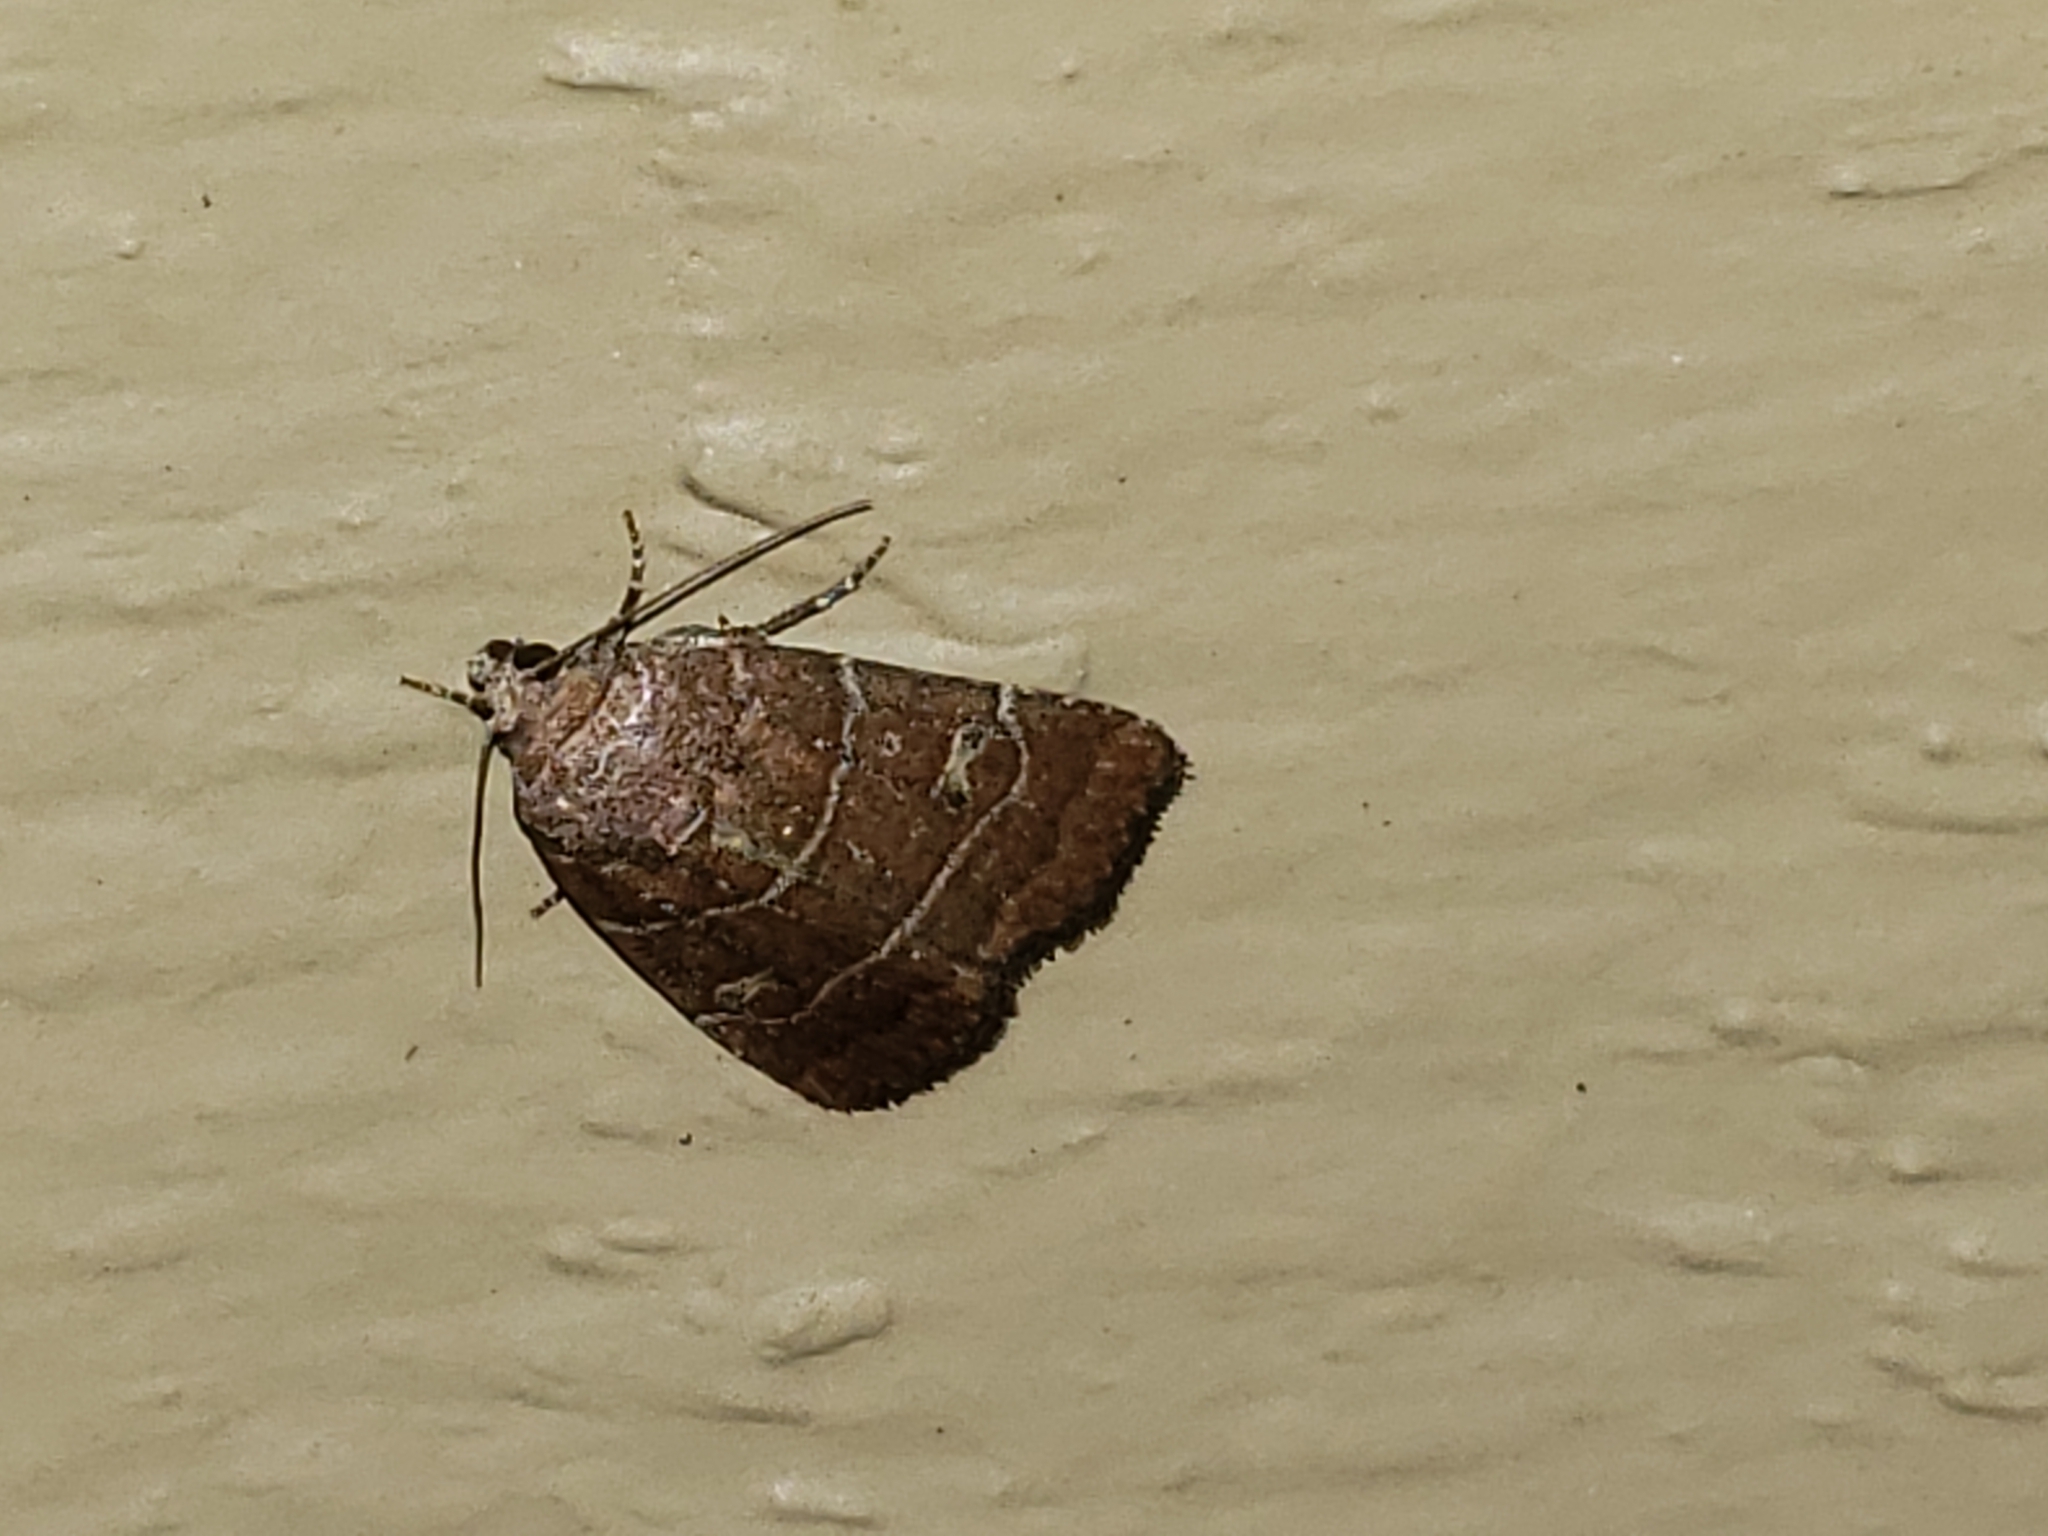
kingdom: Animalia
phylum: Arthropoda
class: Insecta
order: Lepidoptera
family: Noctuidae
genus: Elaphria
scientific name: Elaphria grata
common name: Grateful midget moth
